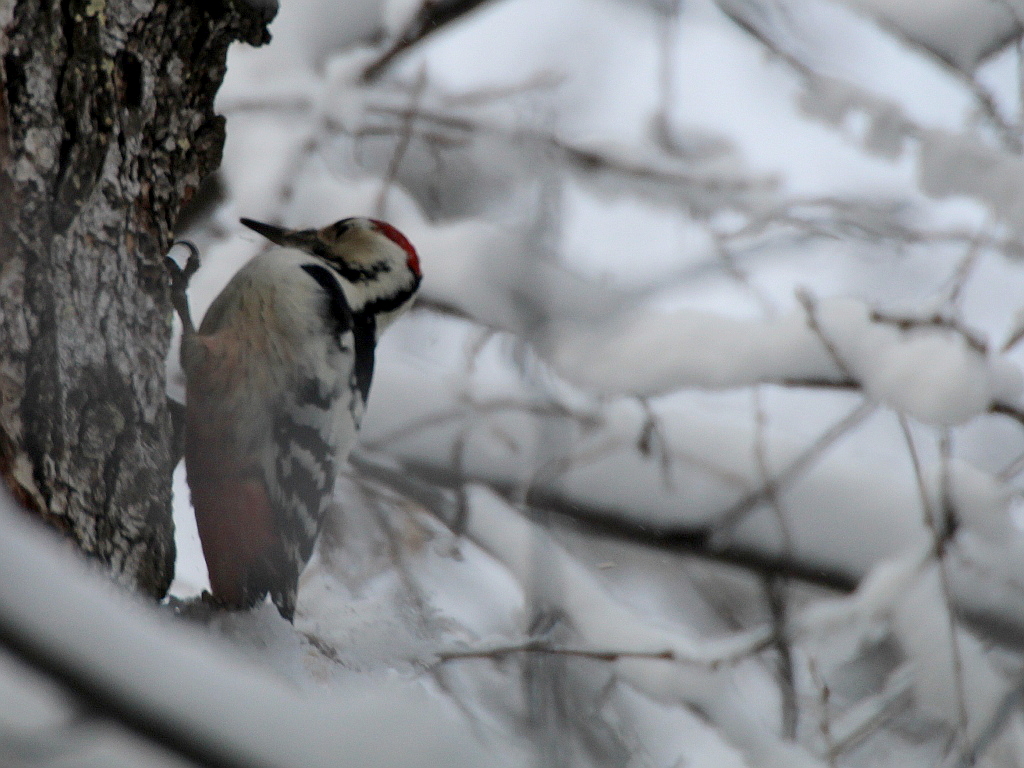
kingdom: Animalia
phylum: Chordata
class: Aves
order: Piciformes
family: Picidae
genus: Dendrocopos
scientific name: Dendrocopos leucotos
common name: White-backed woodpecker
